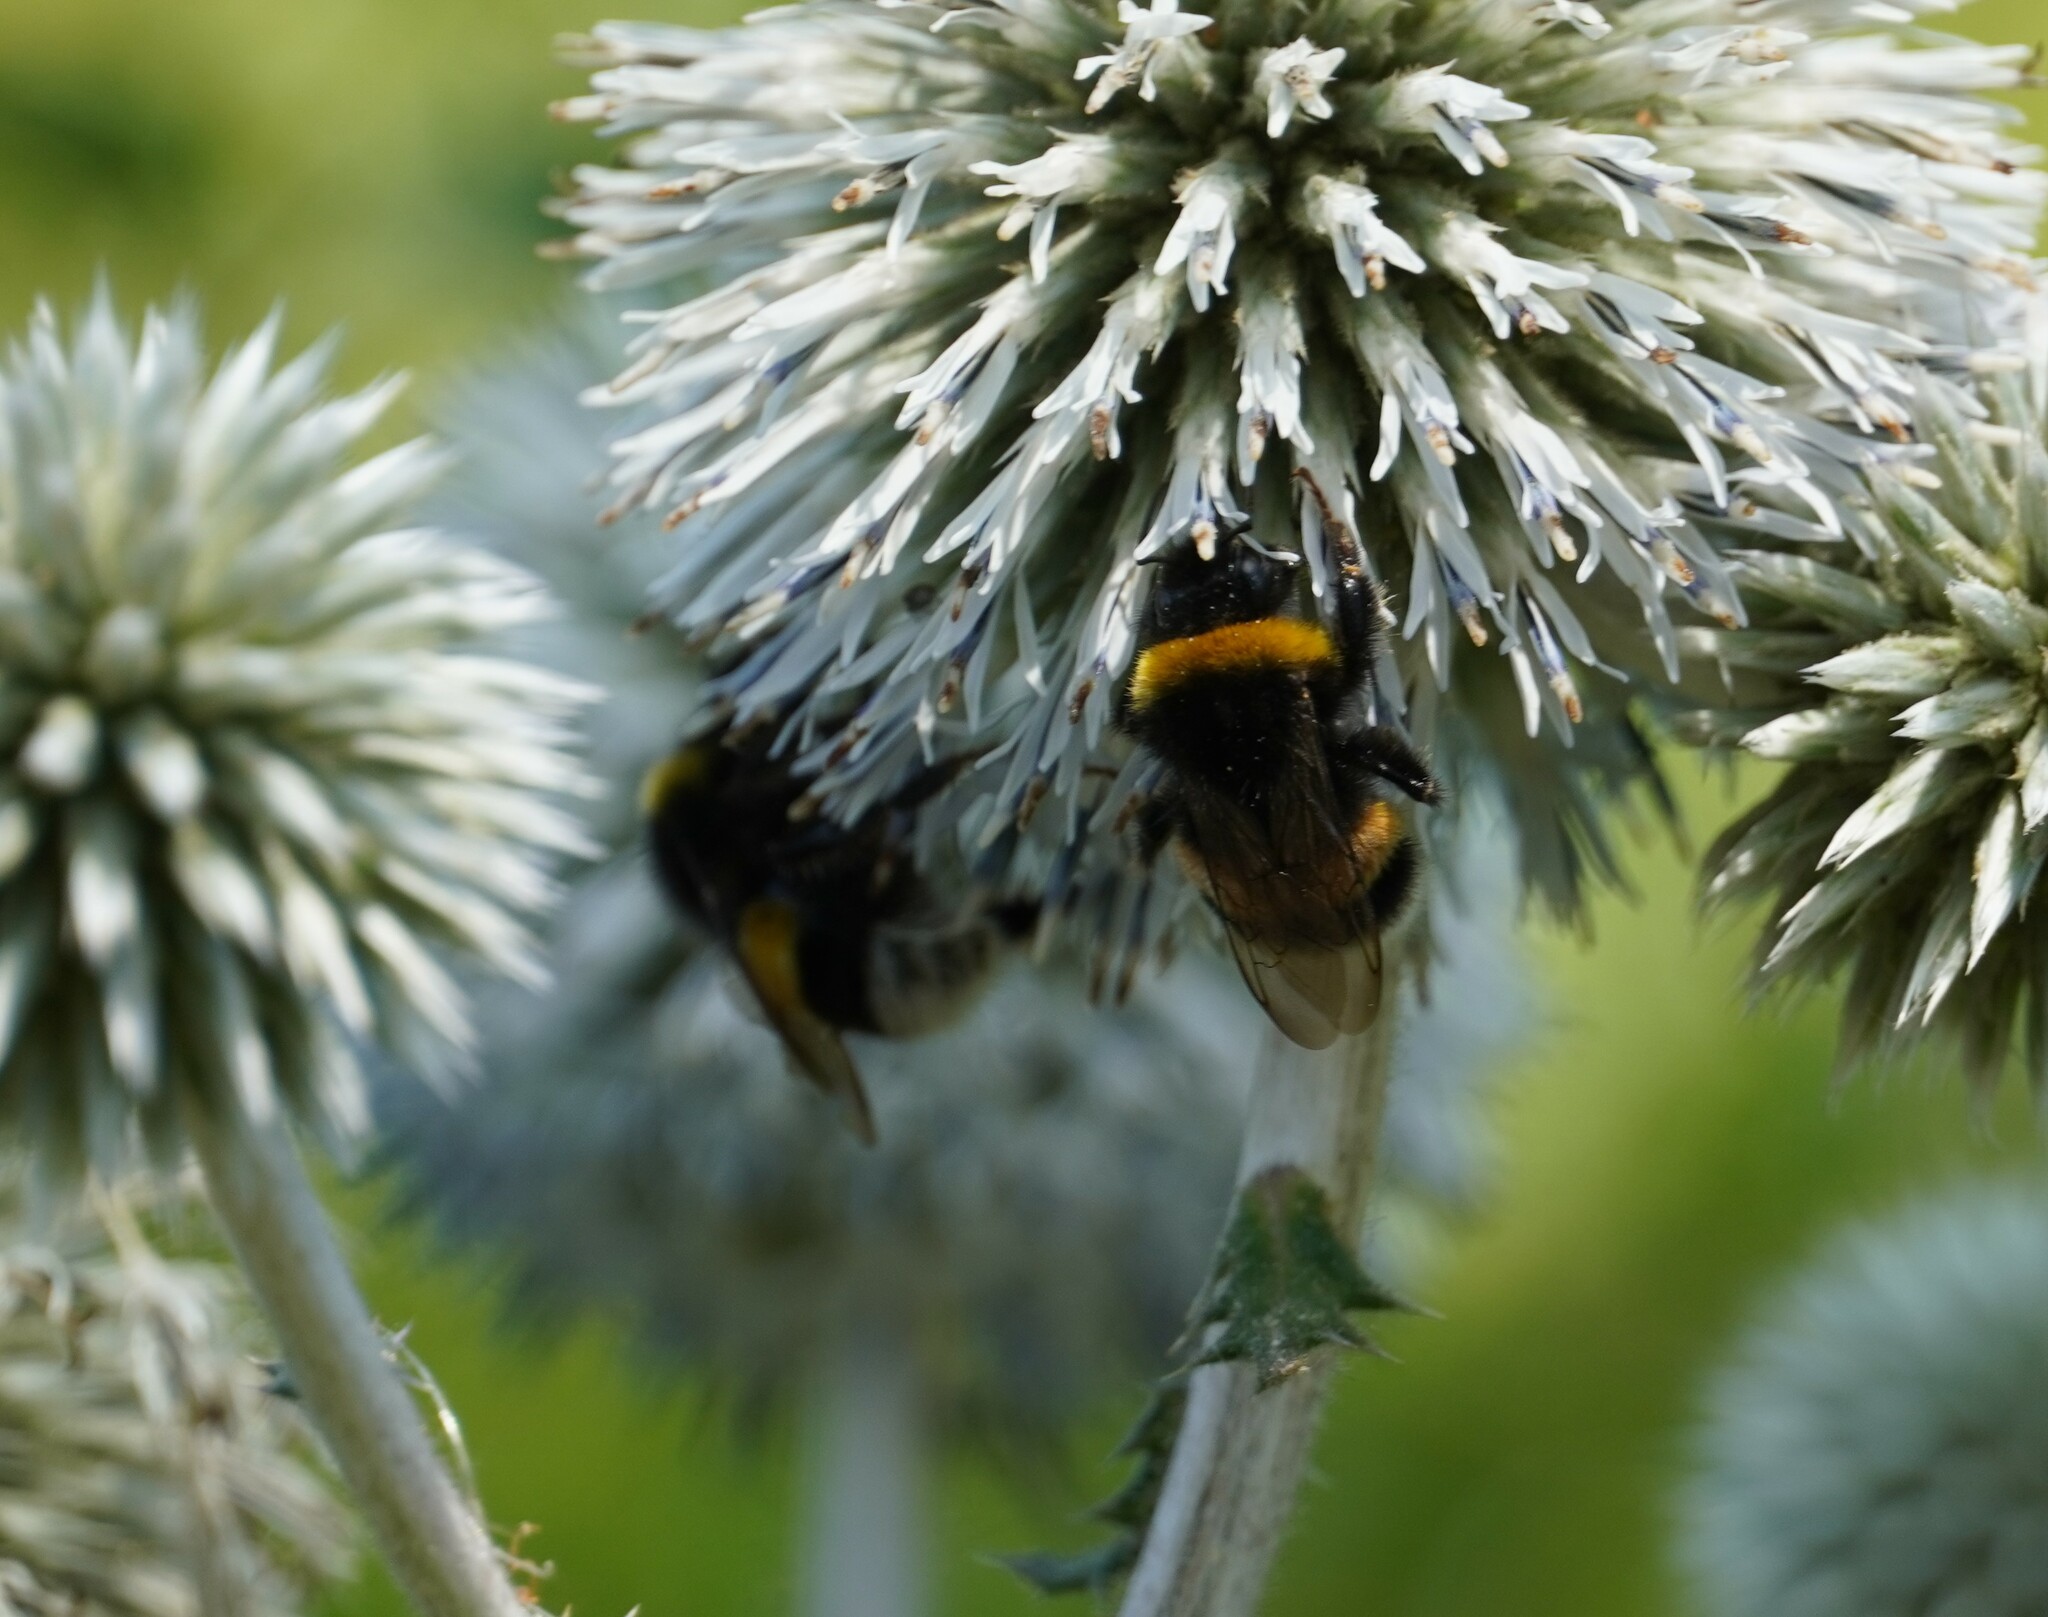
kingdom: Animalia
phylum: Arthropoda
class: Insecta
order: Hymenoptera
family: Apidae
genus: Bombus
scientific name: Bombus
